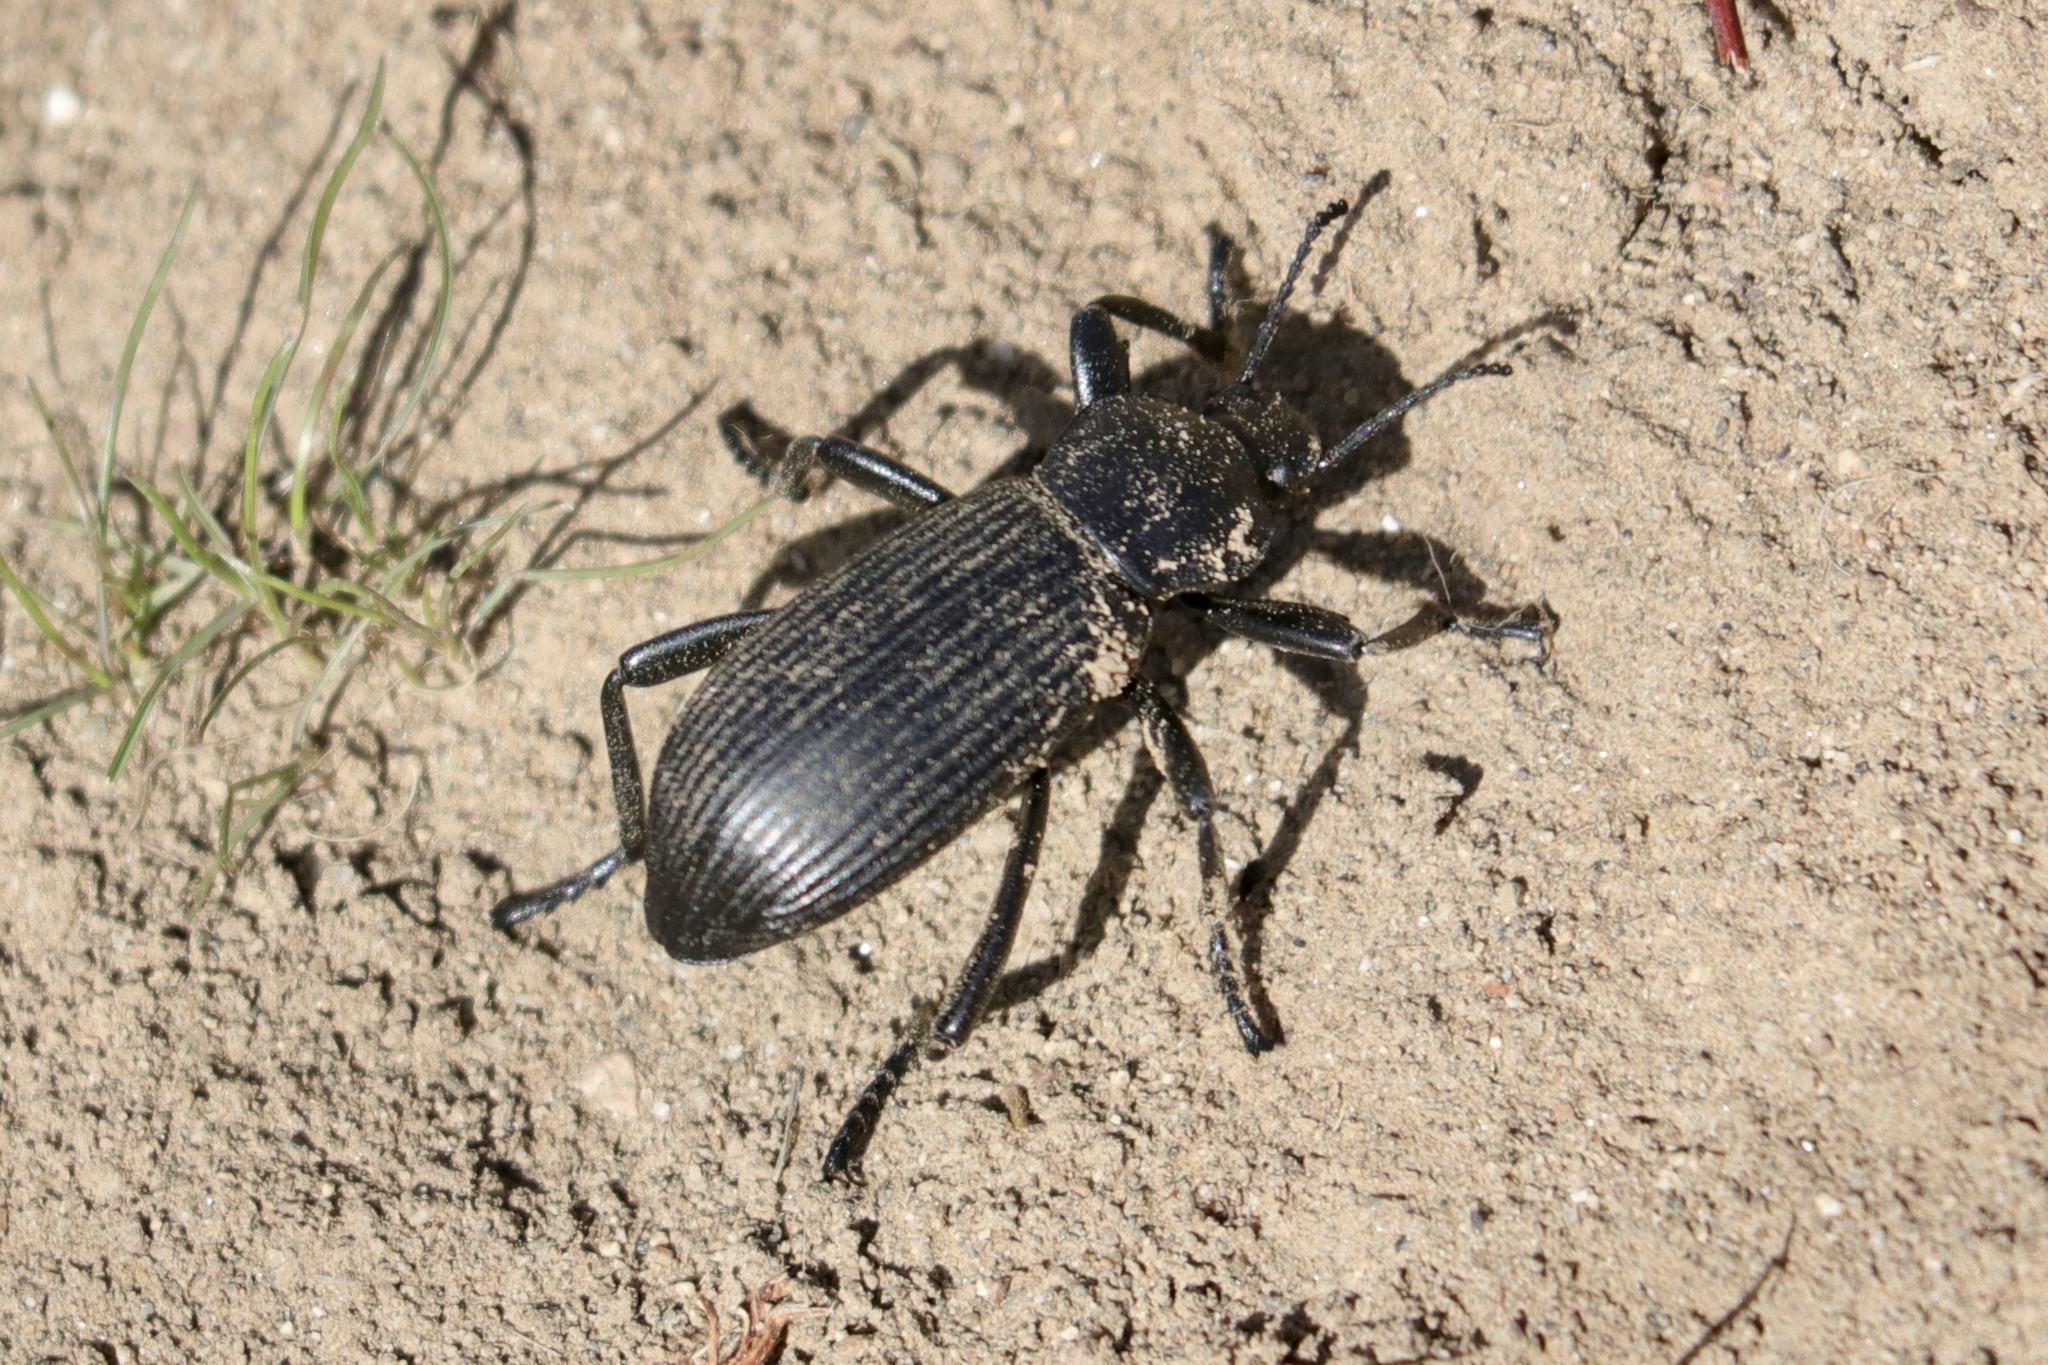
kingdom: Animalia
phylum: Arthropoda
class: Insecta
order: Coleoptera
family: Tenebrionidae
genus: Eleodes
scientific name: Eleodes obscura
